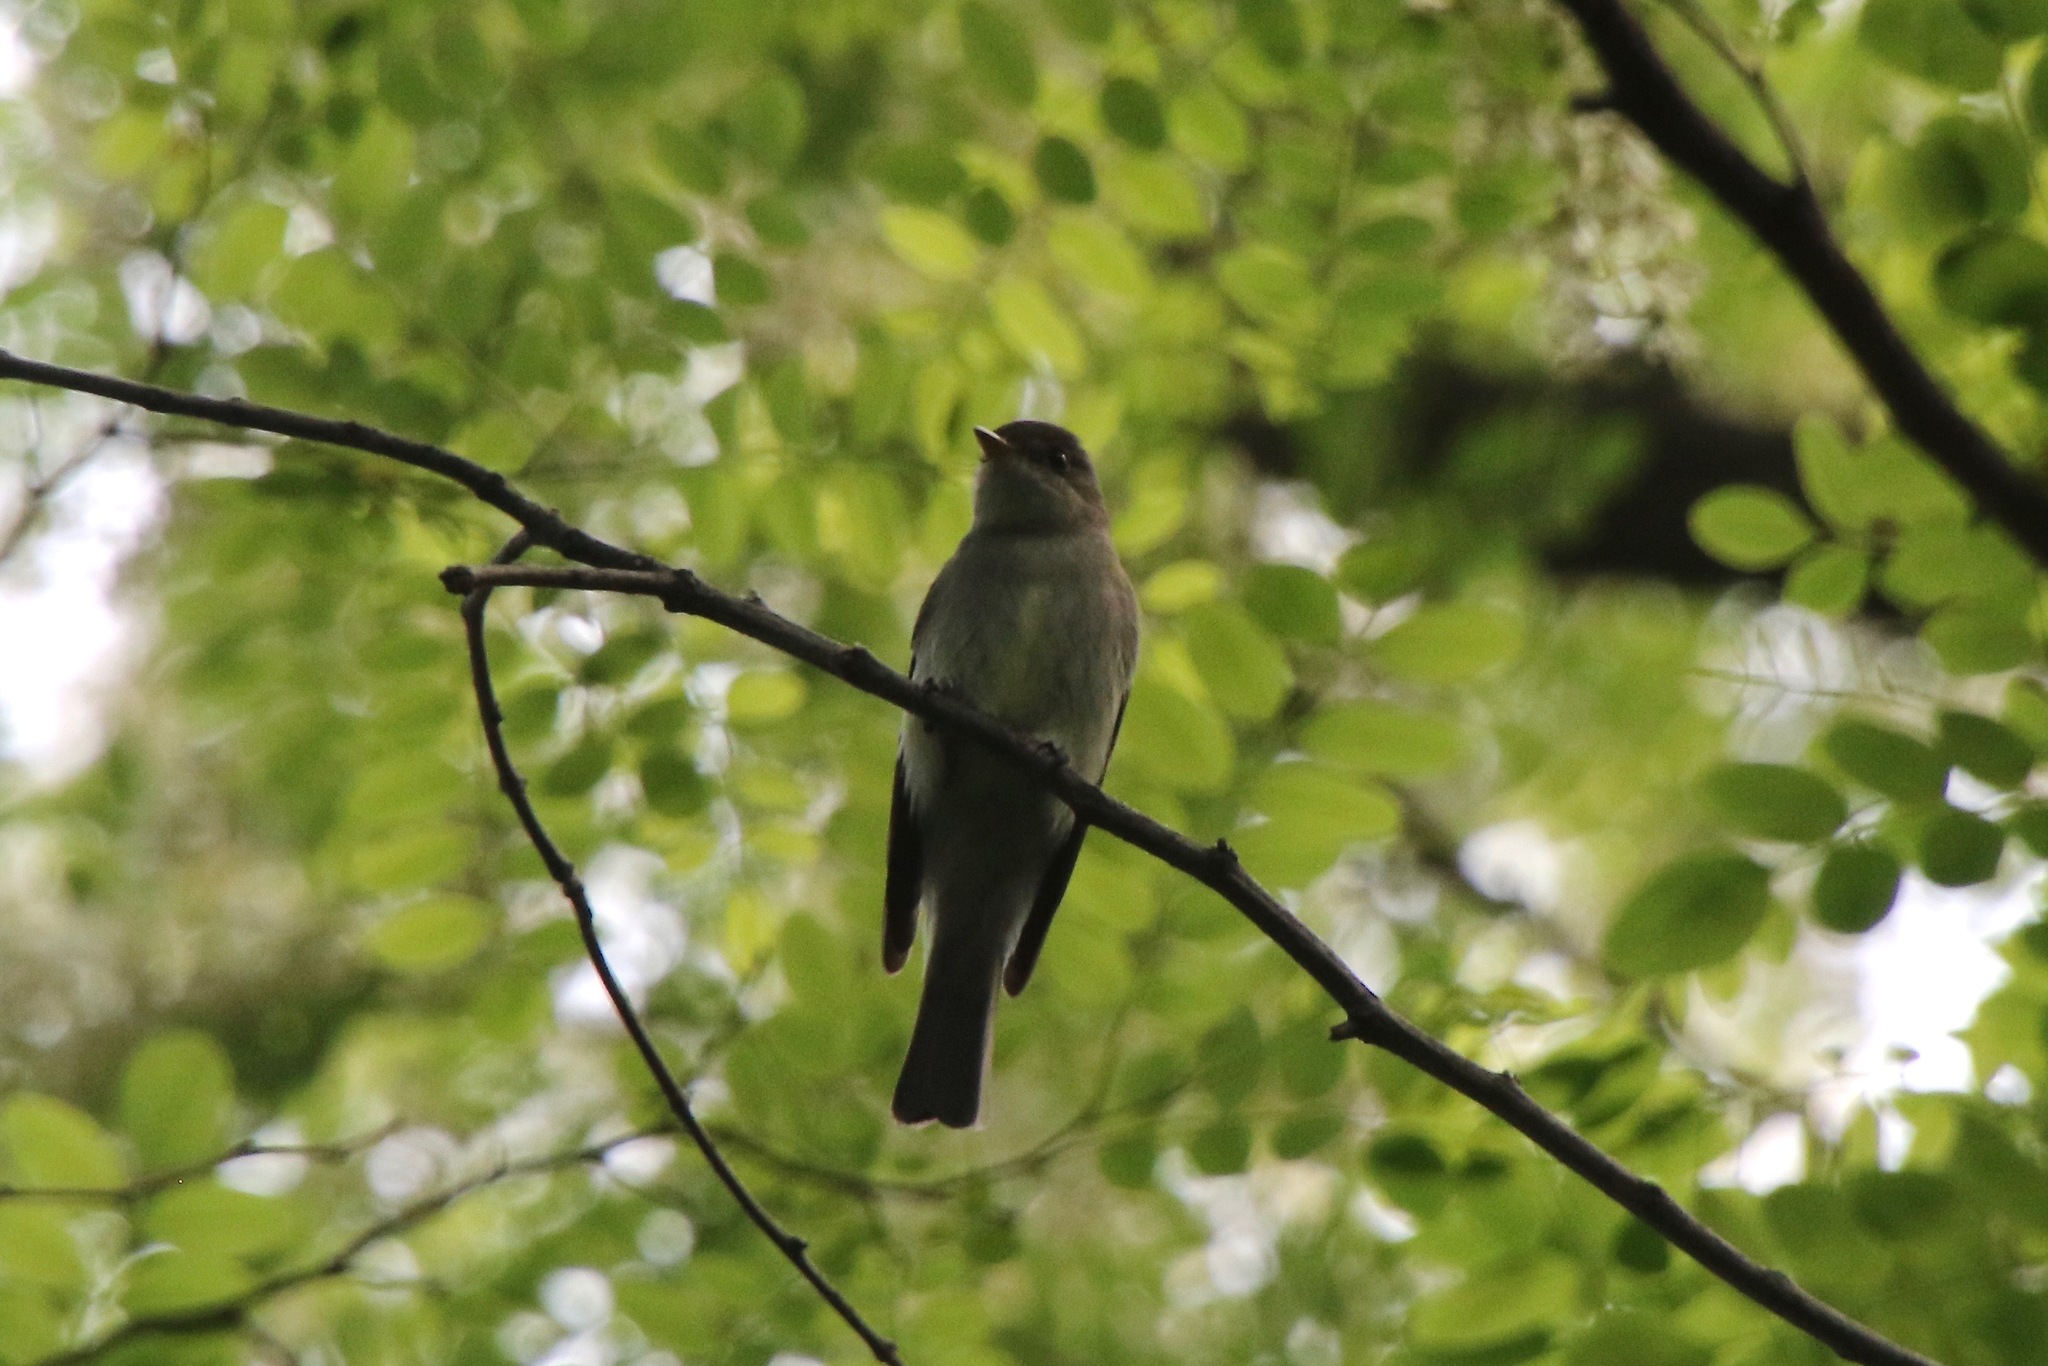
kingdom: Animalia
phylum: Chordata
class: Aves
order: Passeriformes
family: Tyrannidae
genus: Contopus
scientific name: Contopus virens
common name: Eastern wood-pewee
